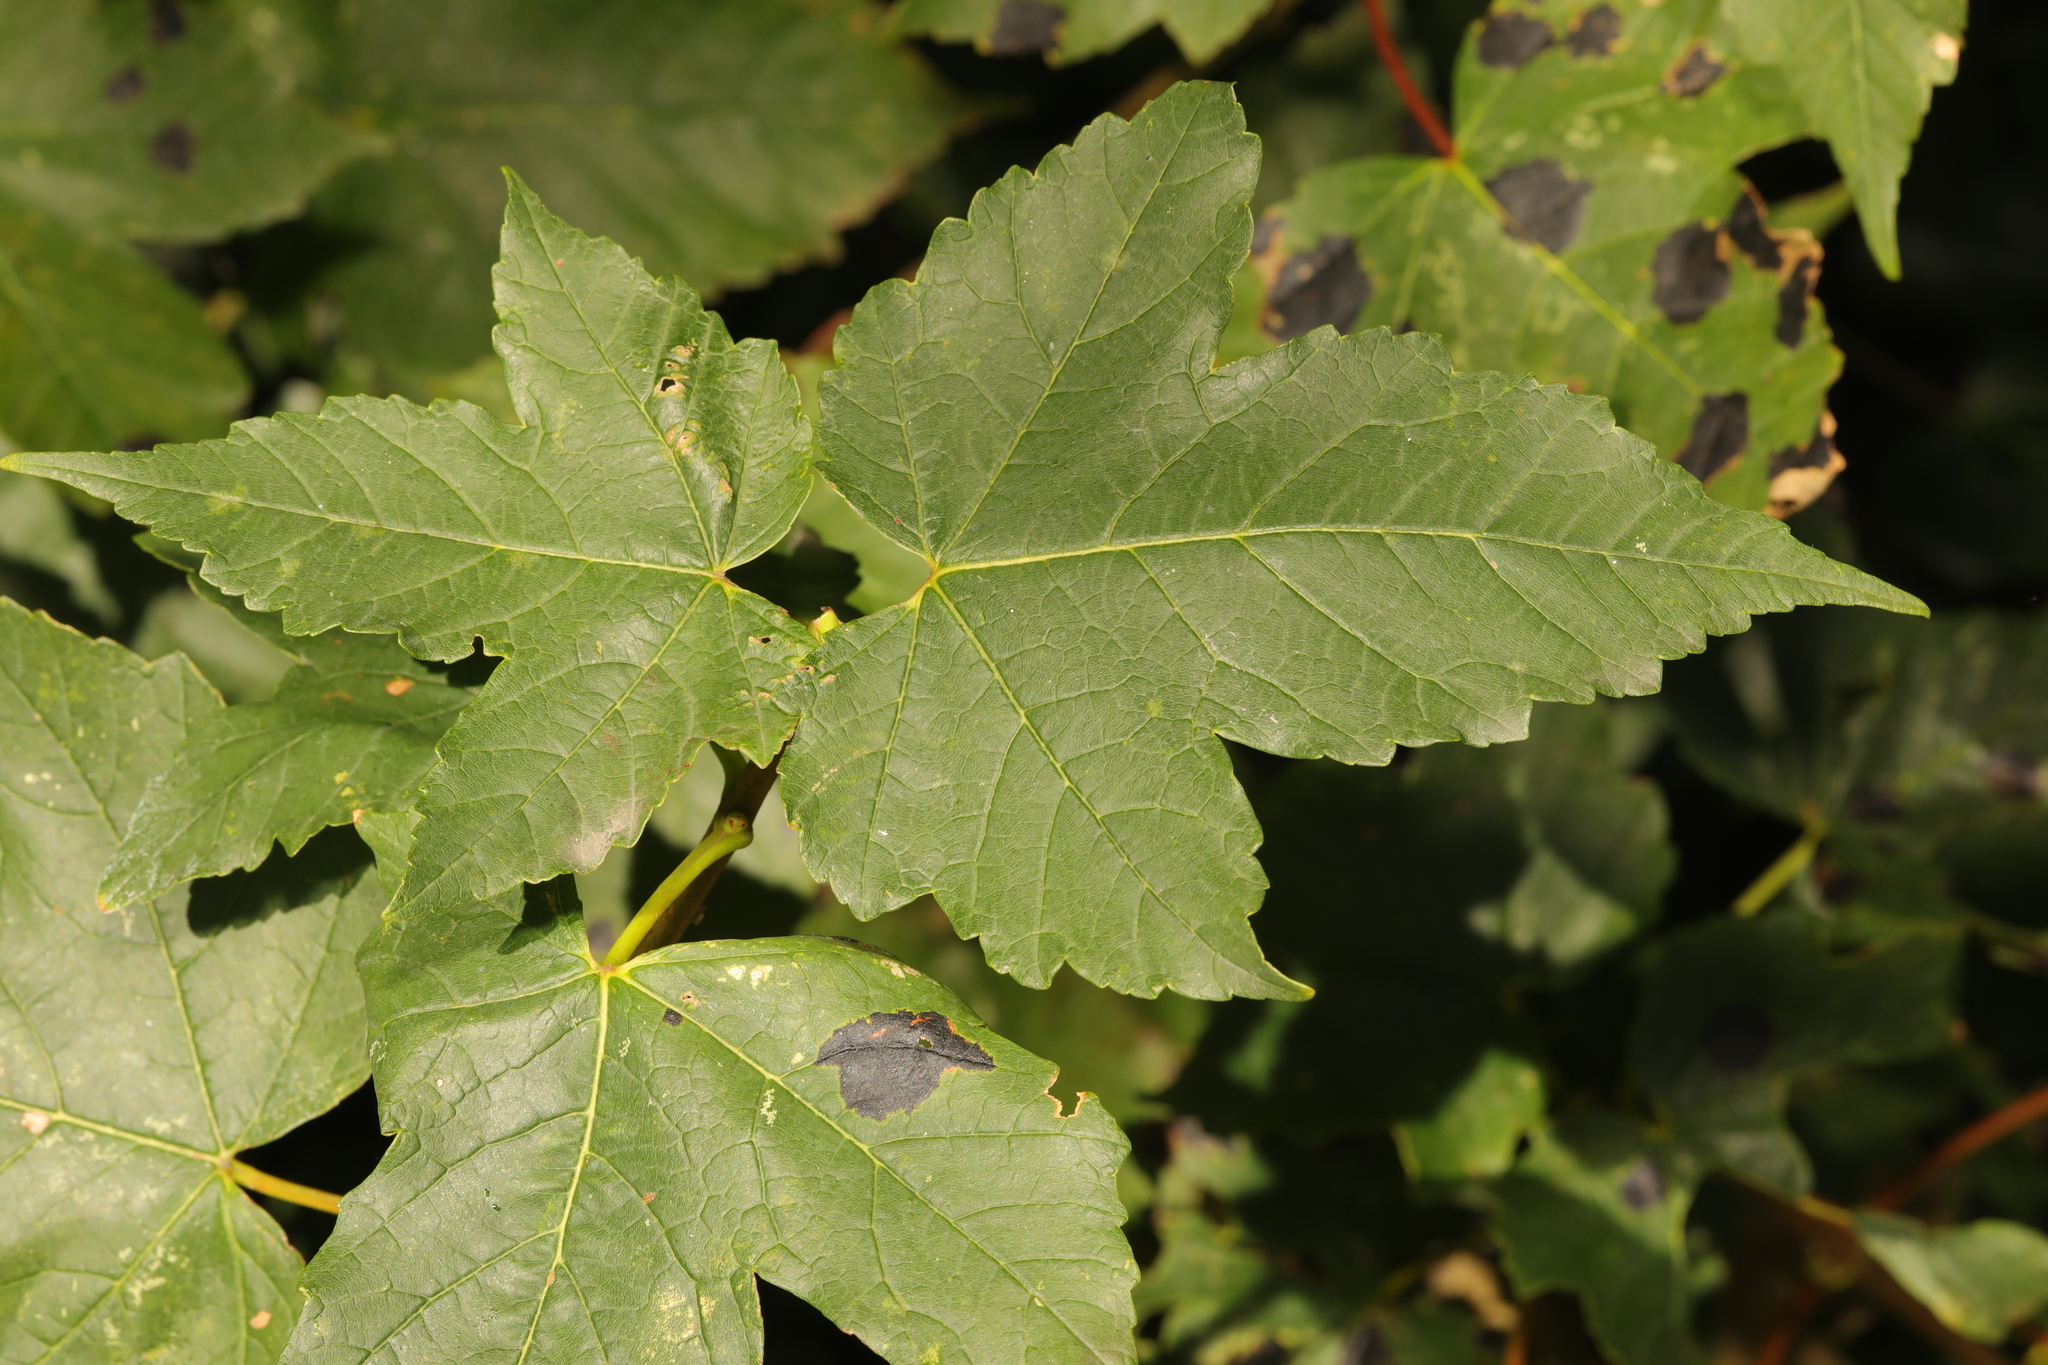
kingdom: Plantae
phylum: Tracheophyta
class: Magnoliopsida
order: Sapindales
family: Sapindaceae
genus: Acer
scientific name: Acer pseudoplatanus
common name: Sycamore
